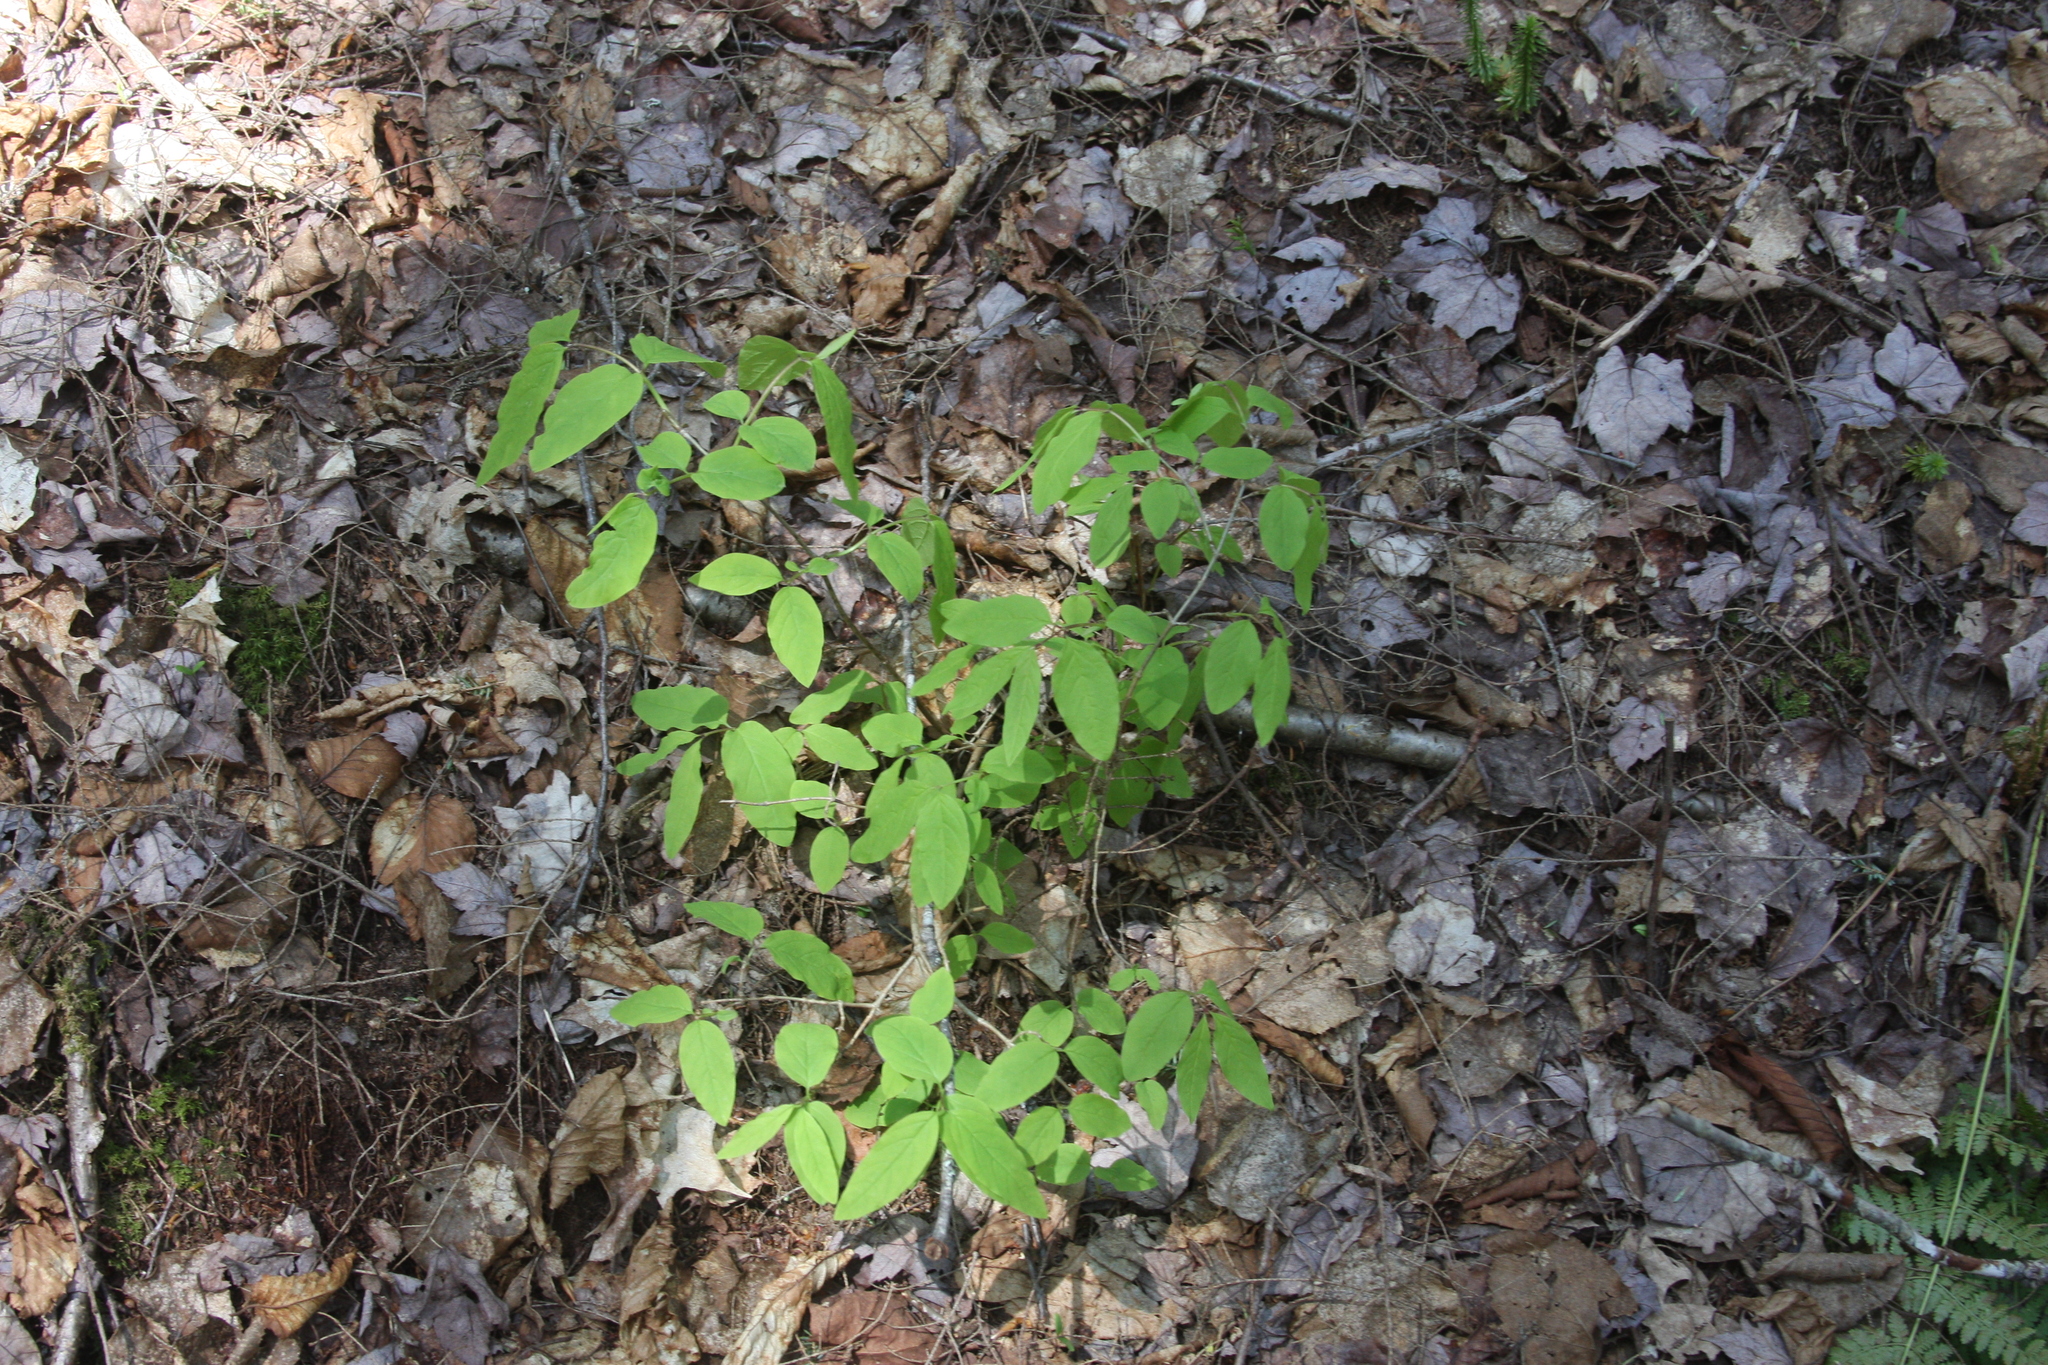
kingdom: Plantae
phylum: Tracheophyta
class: Magnoliopsida
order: Dipsacales
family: Caprifoliaceae
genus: Lonicera
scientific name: Lonicera canadensis
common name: American fly-honeysuckle
